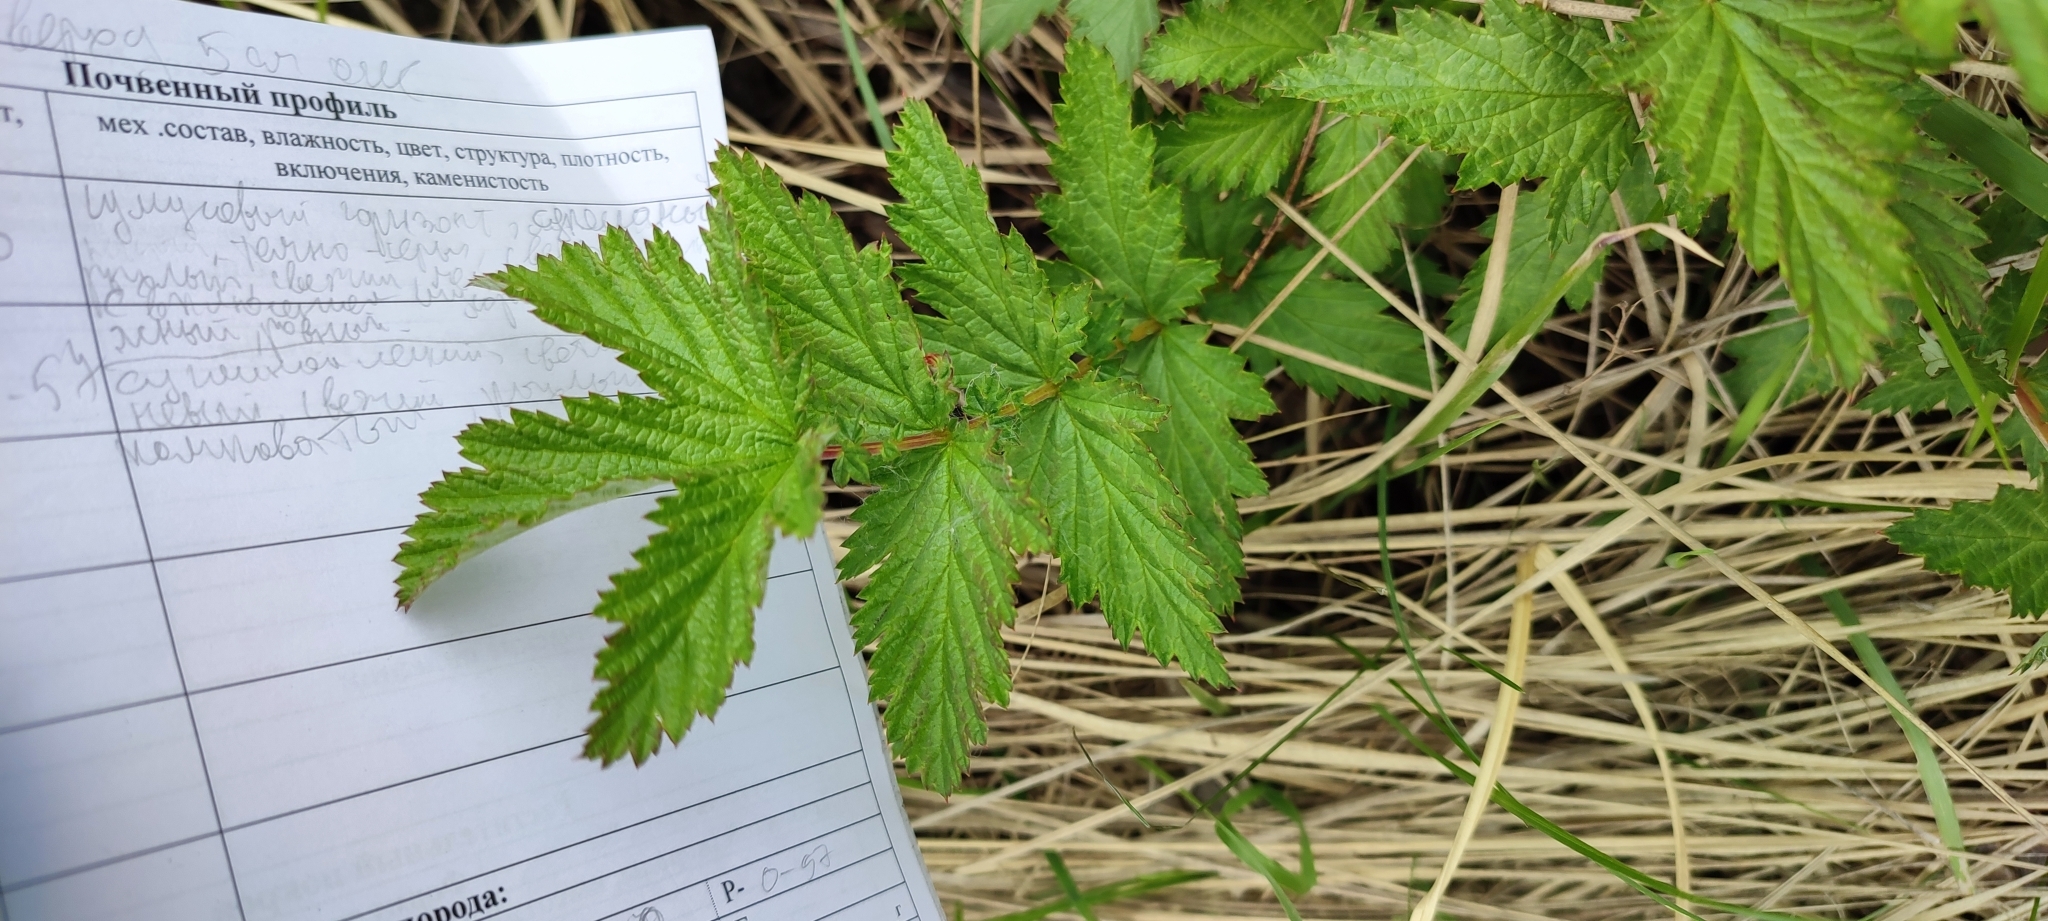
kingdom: Plantae
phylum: Tracheophyta
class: Magnoliopsida
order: Rosales
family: Rosaceae
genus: Filipendula
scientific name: Filipendula ulmaria
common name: Meadowsweet
